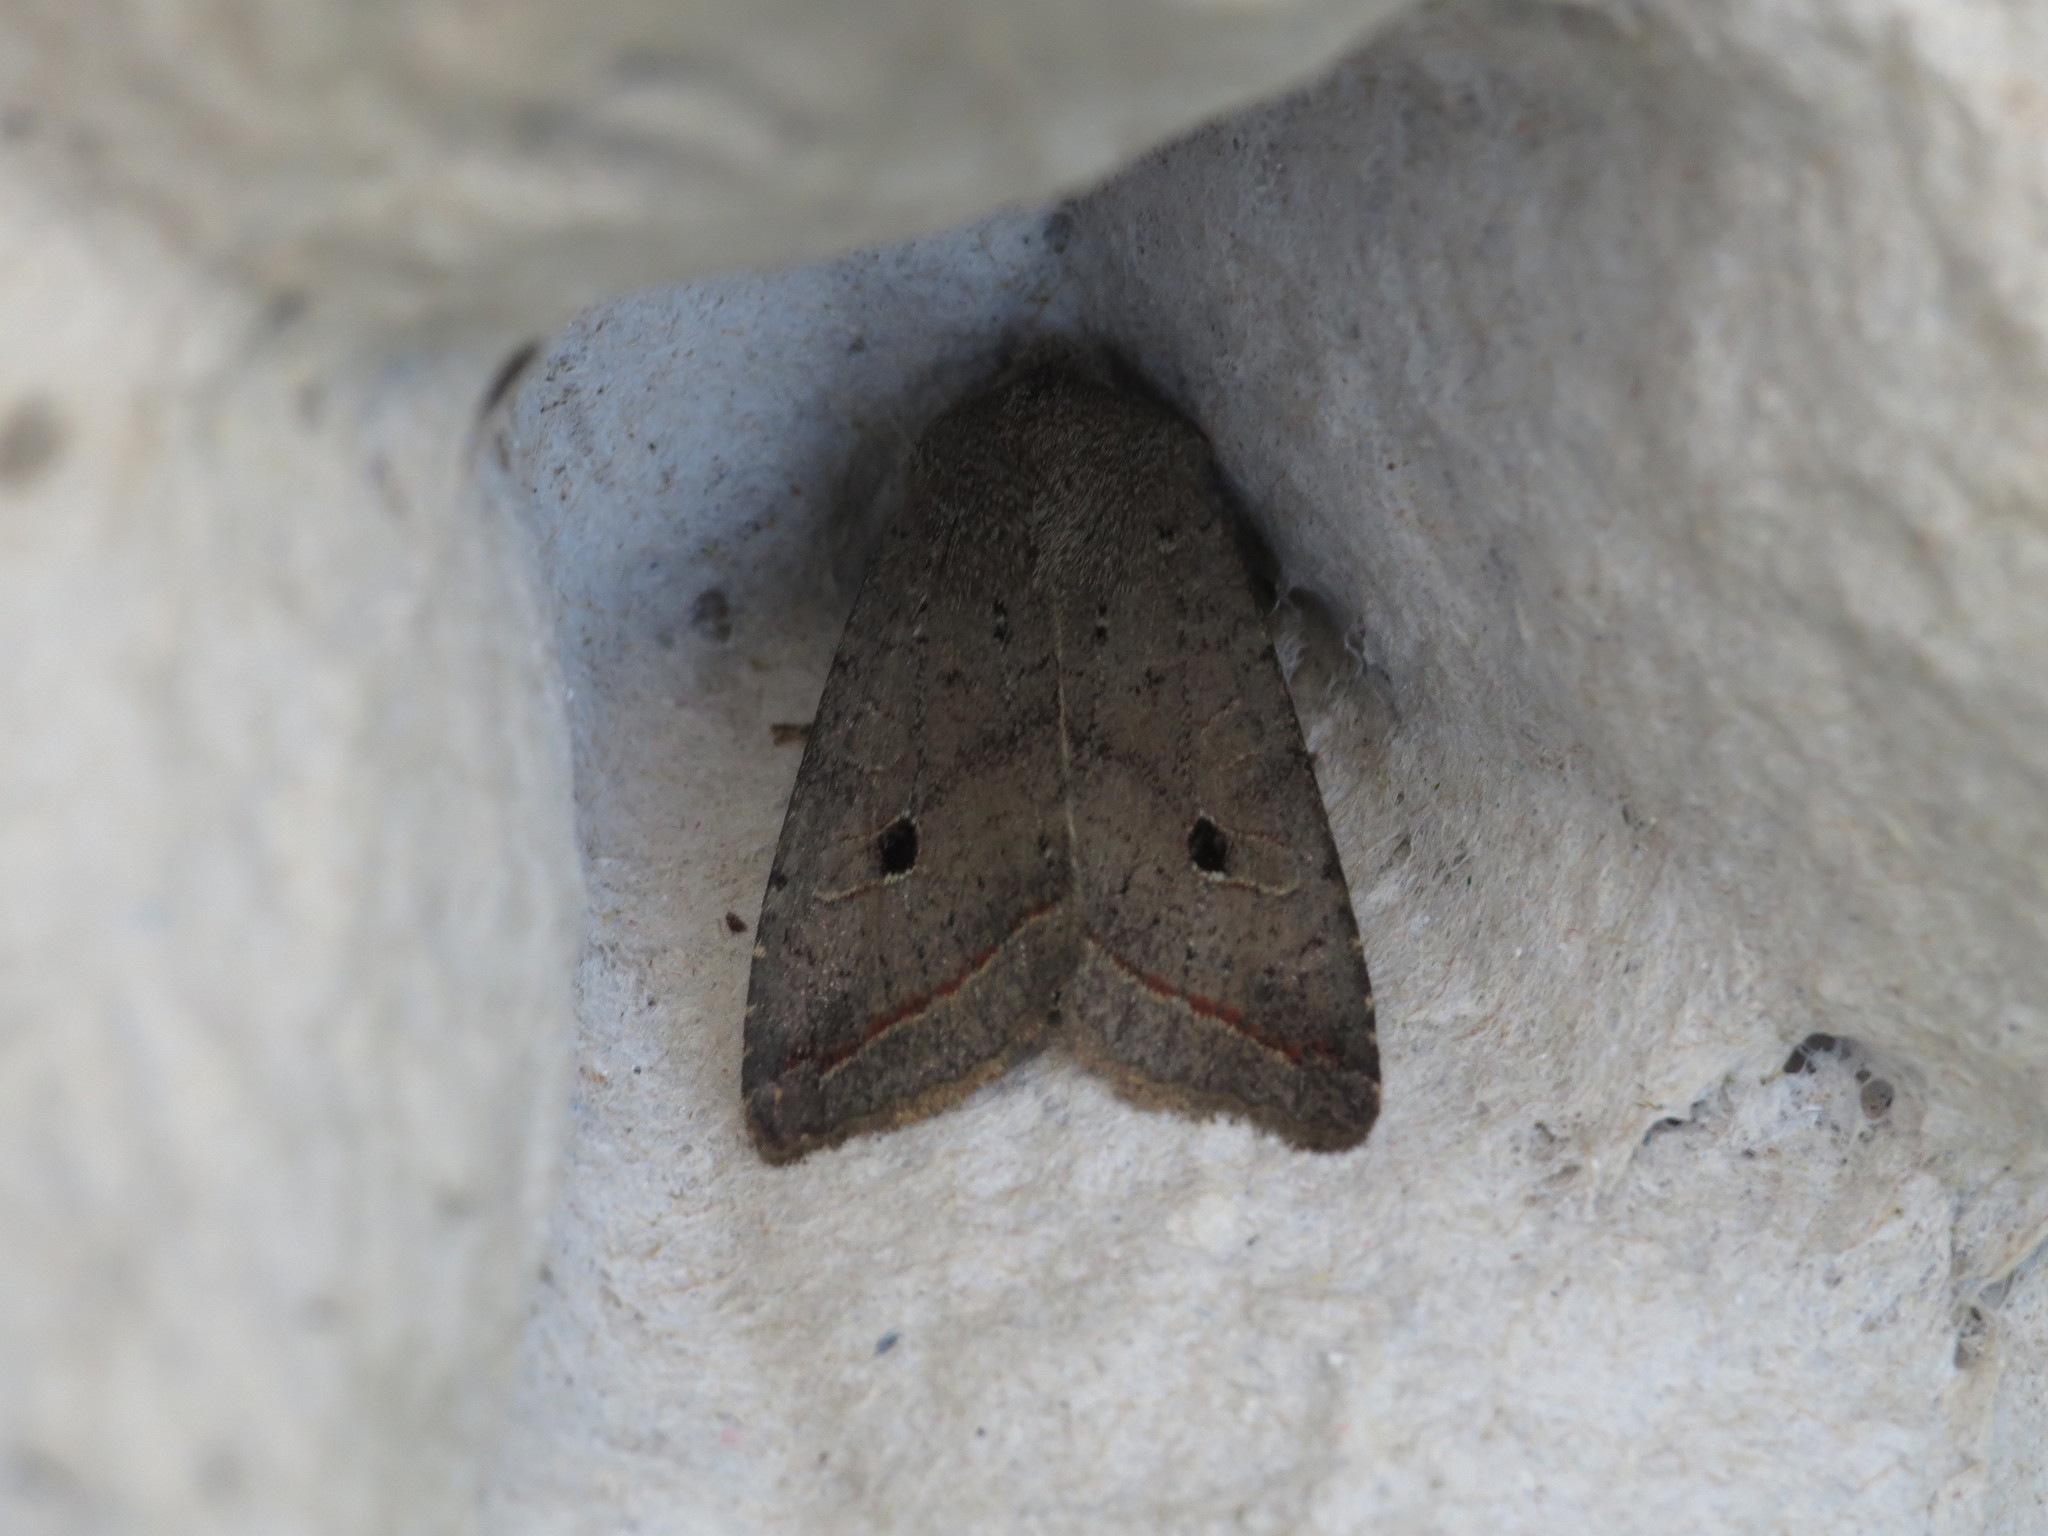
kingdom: Animalia
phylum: Arthropoda
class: Insecta
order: Lepidoptera
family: Noctuidae
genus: Agrochola
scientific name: Agrochola lota
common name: Red-line quaker
